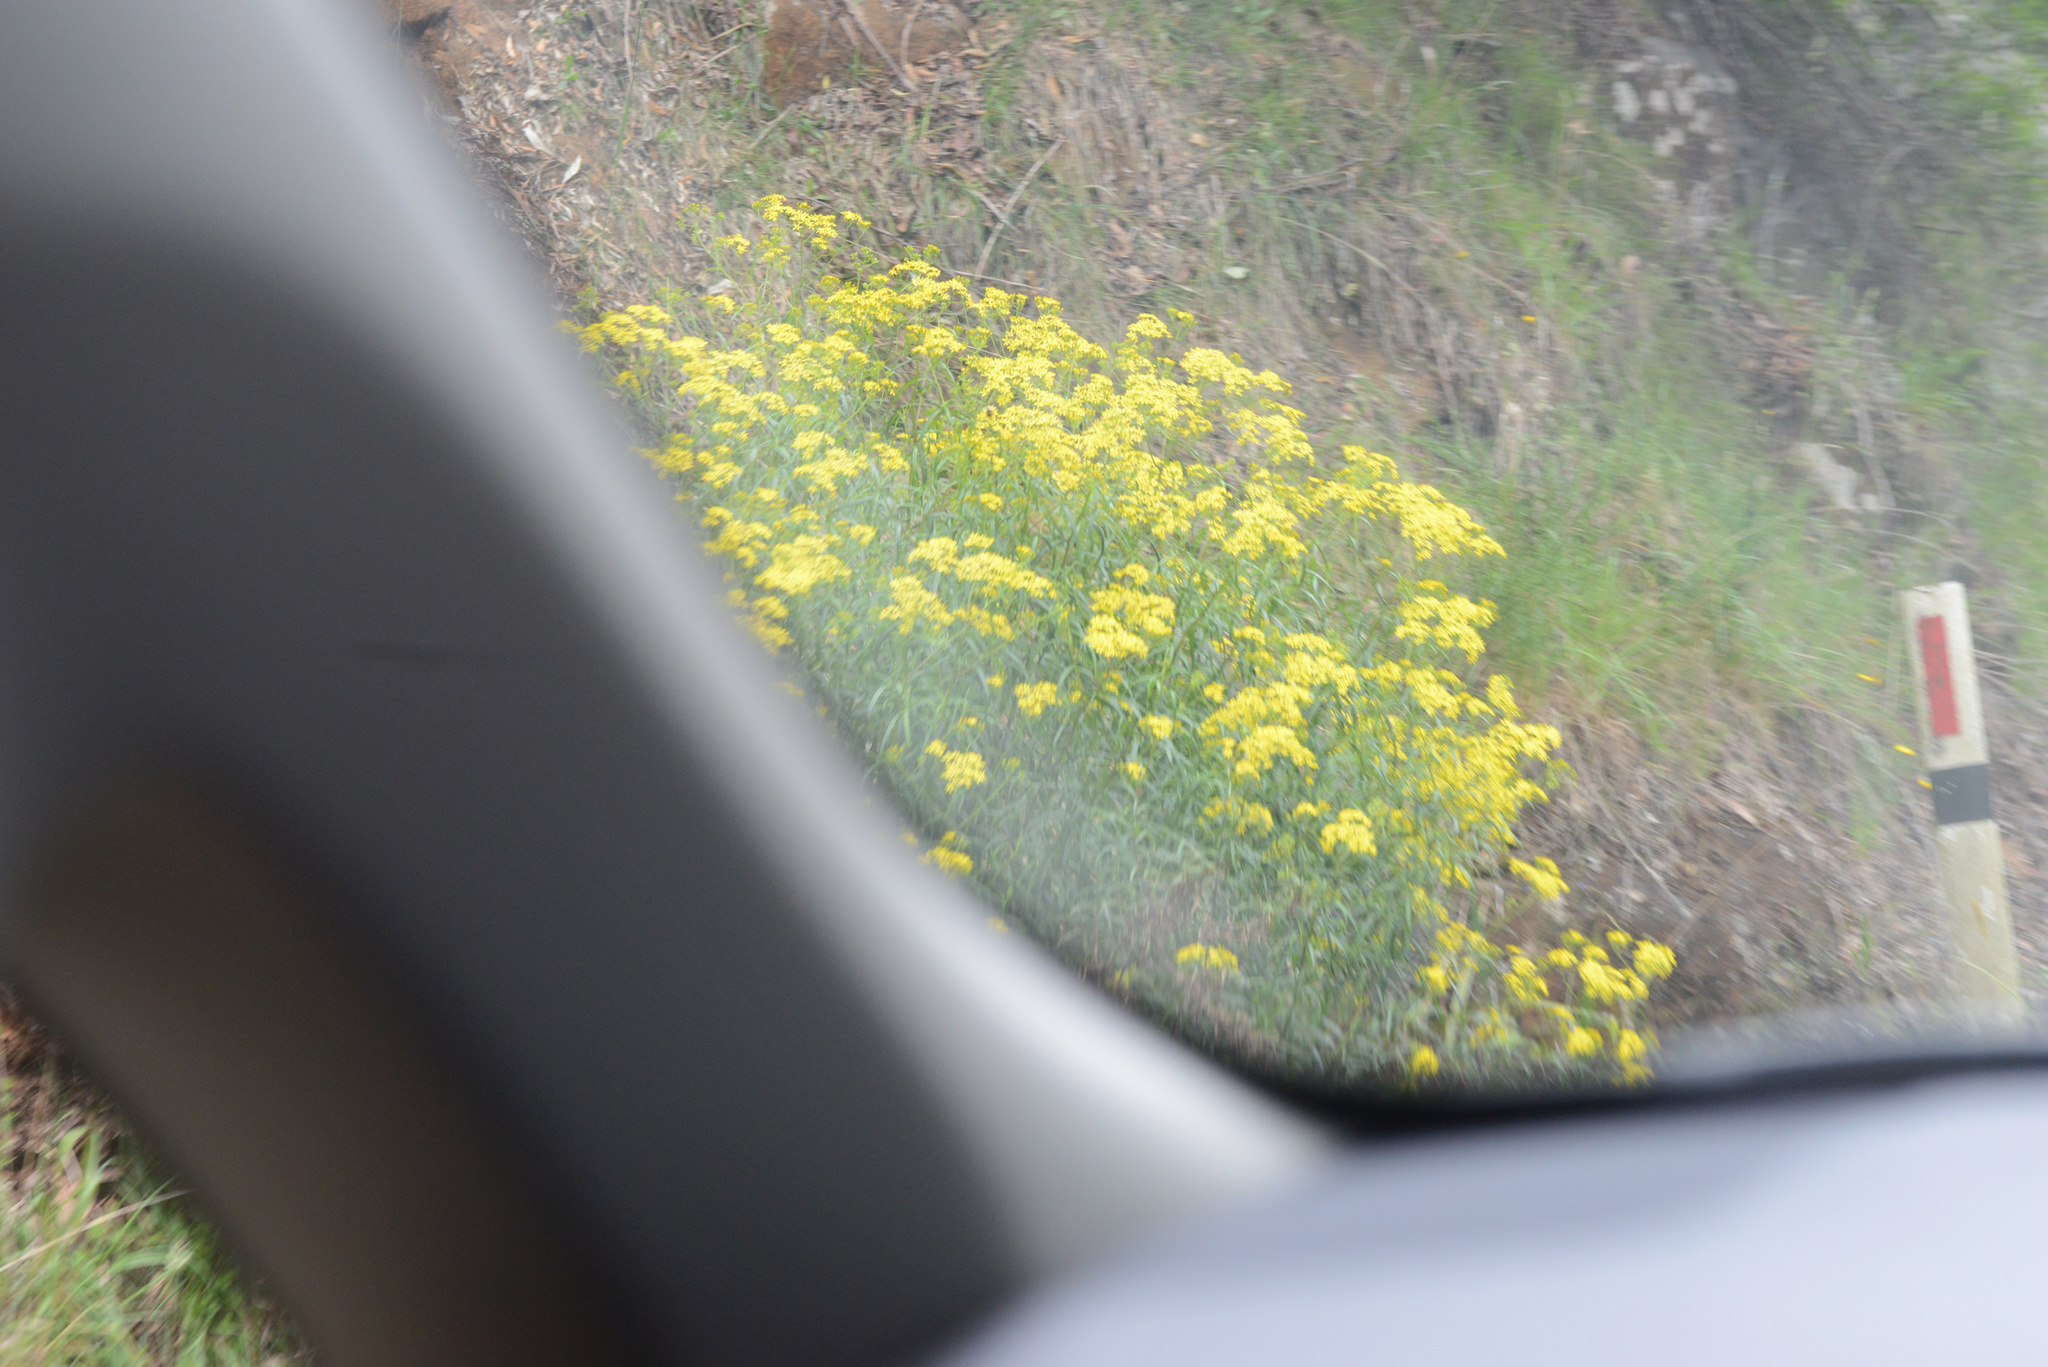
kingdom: Plantae
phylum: Tracheophyta
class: Magnoliopsida
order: Asterales
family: Asteraceae
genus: Senecio
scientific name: Senecio linearifolius
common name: Fireweed groundsel
